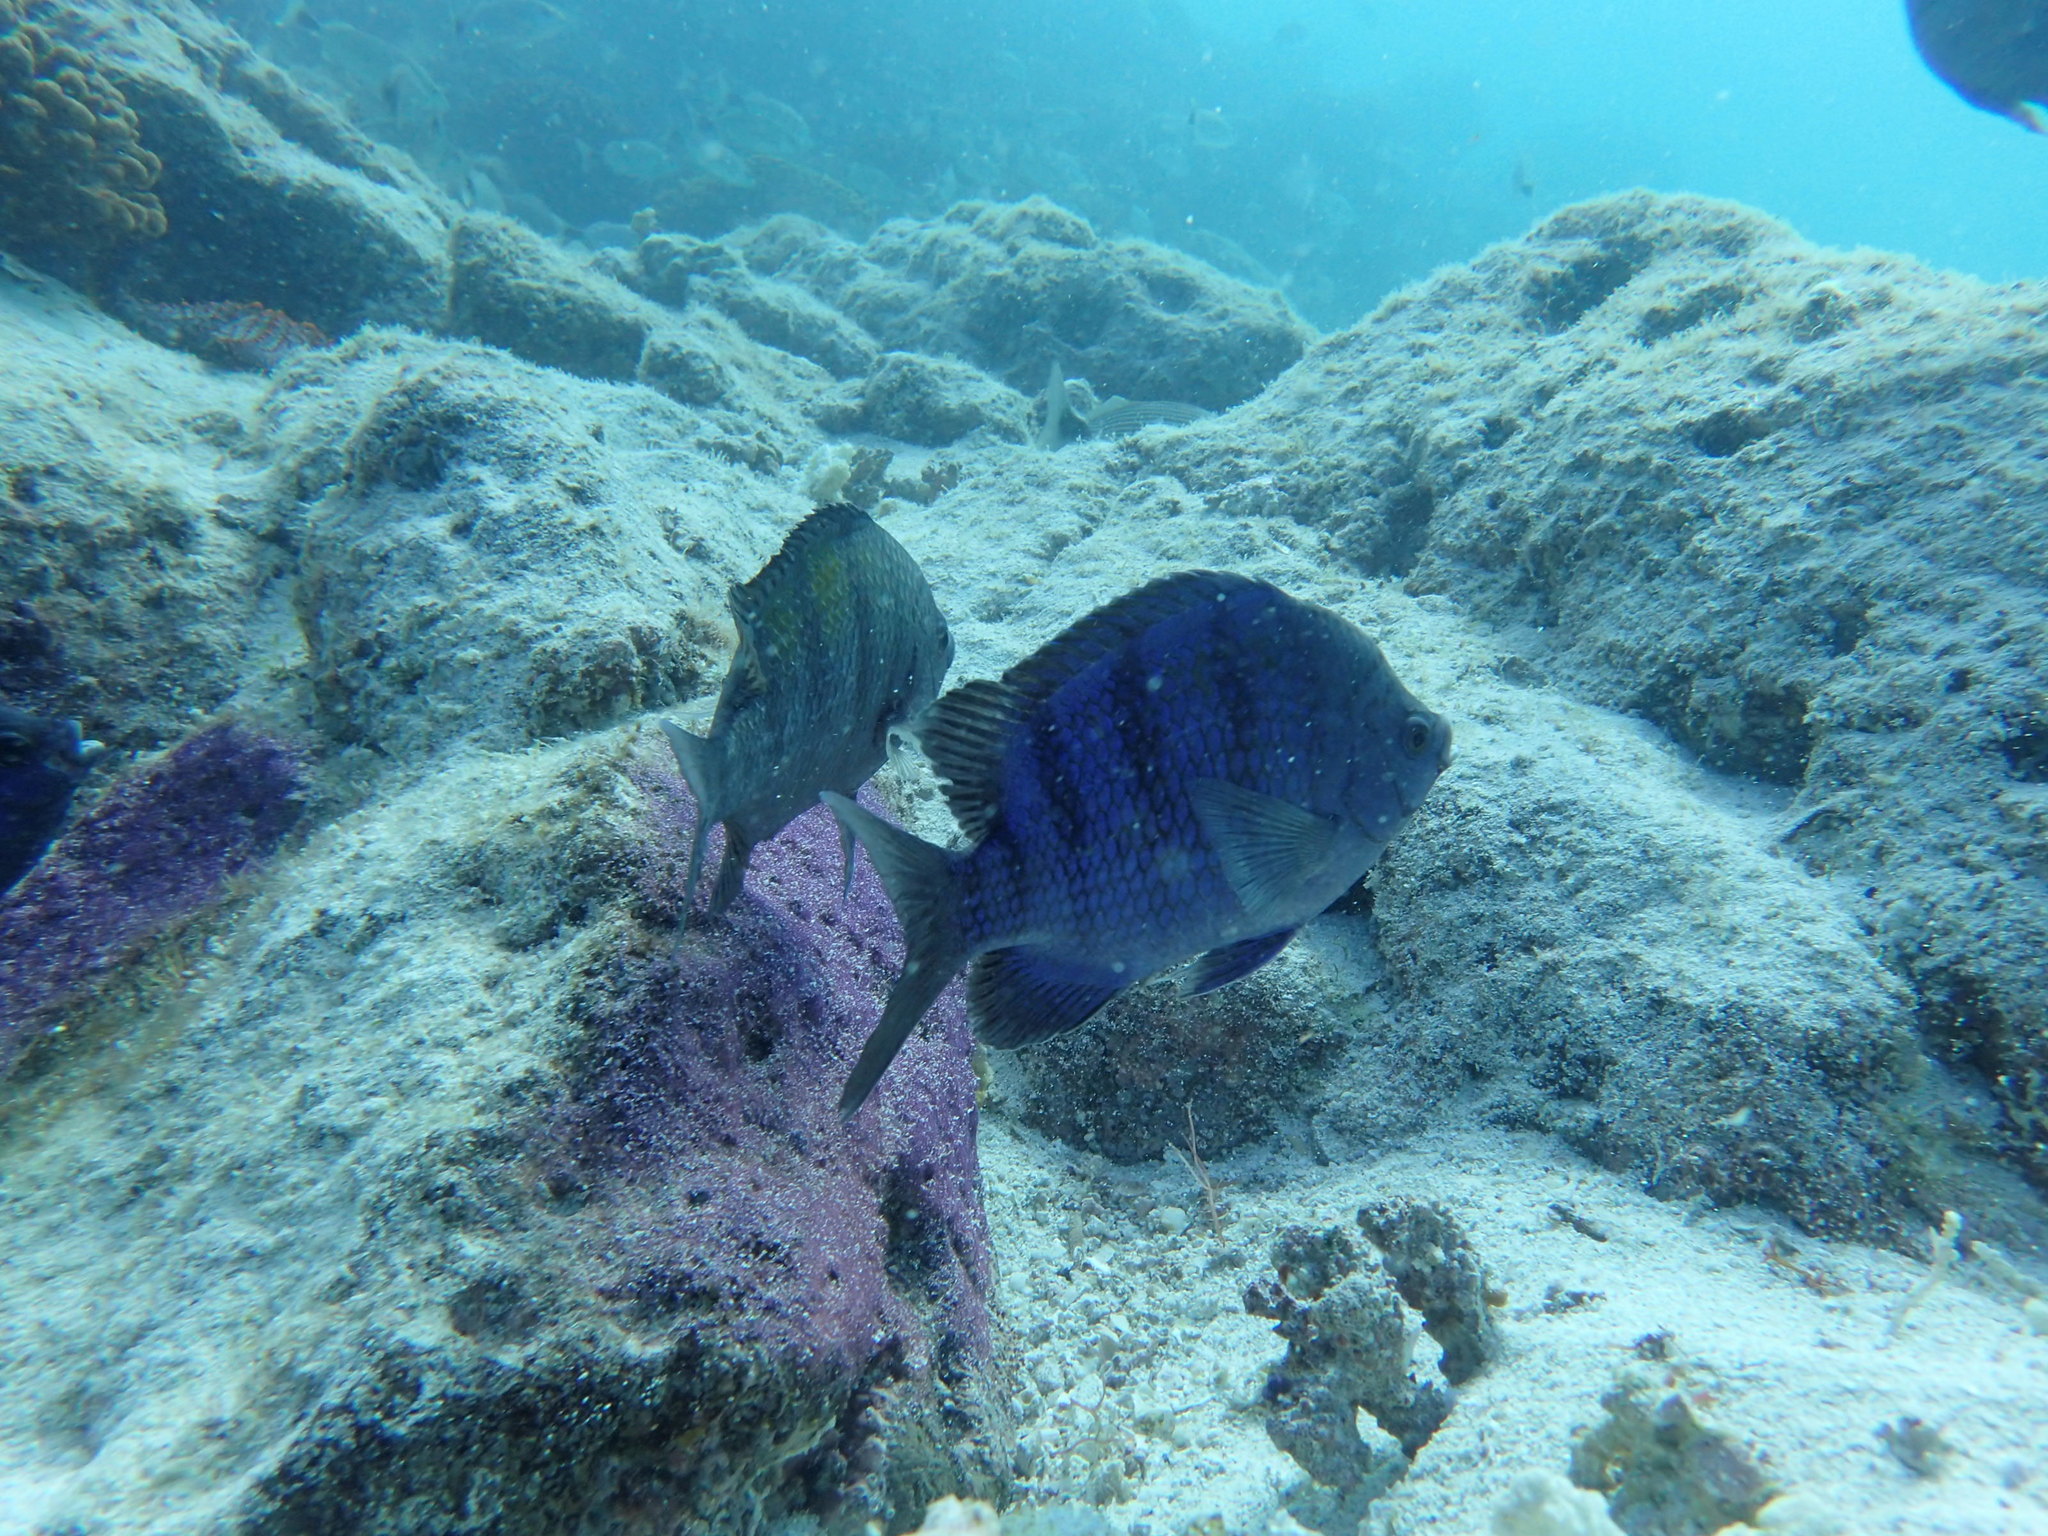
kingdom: Animalia
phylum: Chordata
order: Perciformes
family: Pomacentridae
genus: Abudefduf
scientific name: Abudefduf troschelii
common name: Panamic sergeant major
